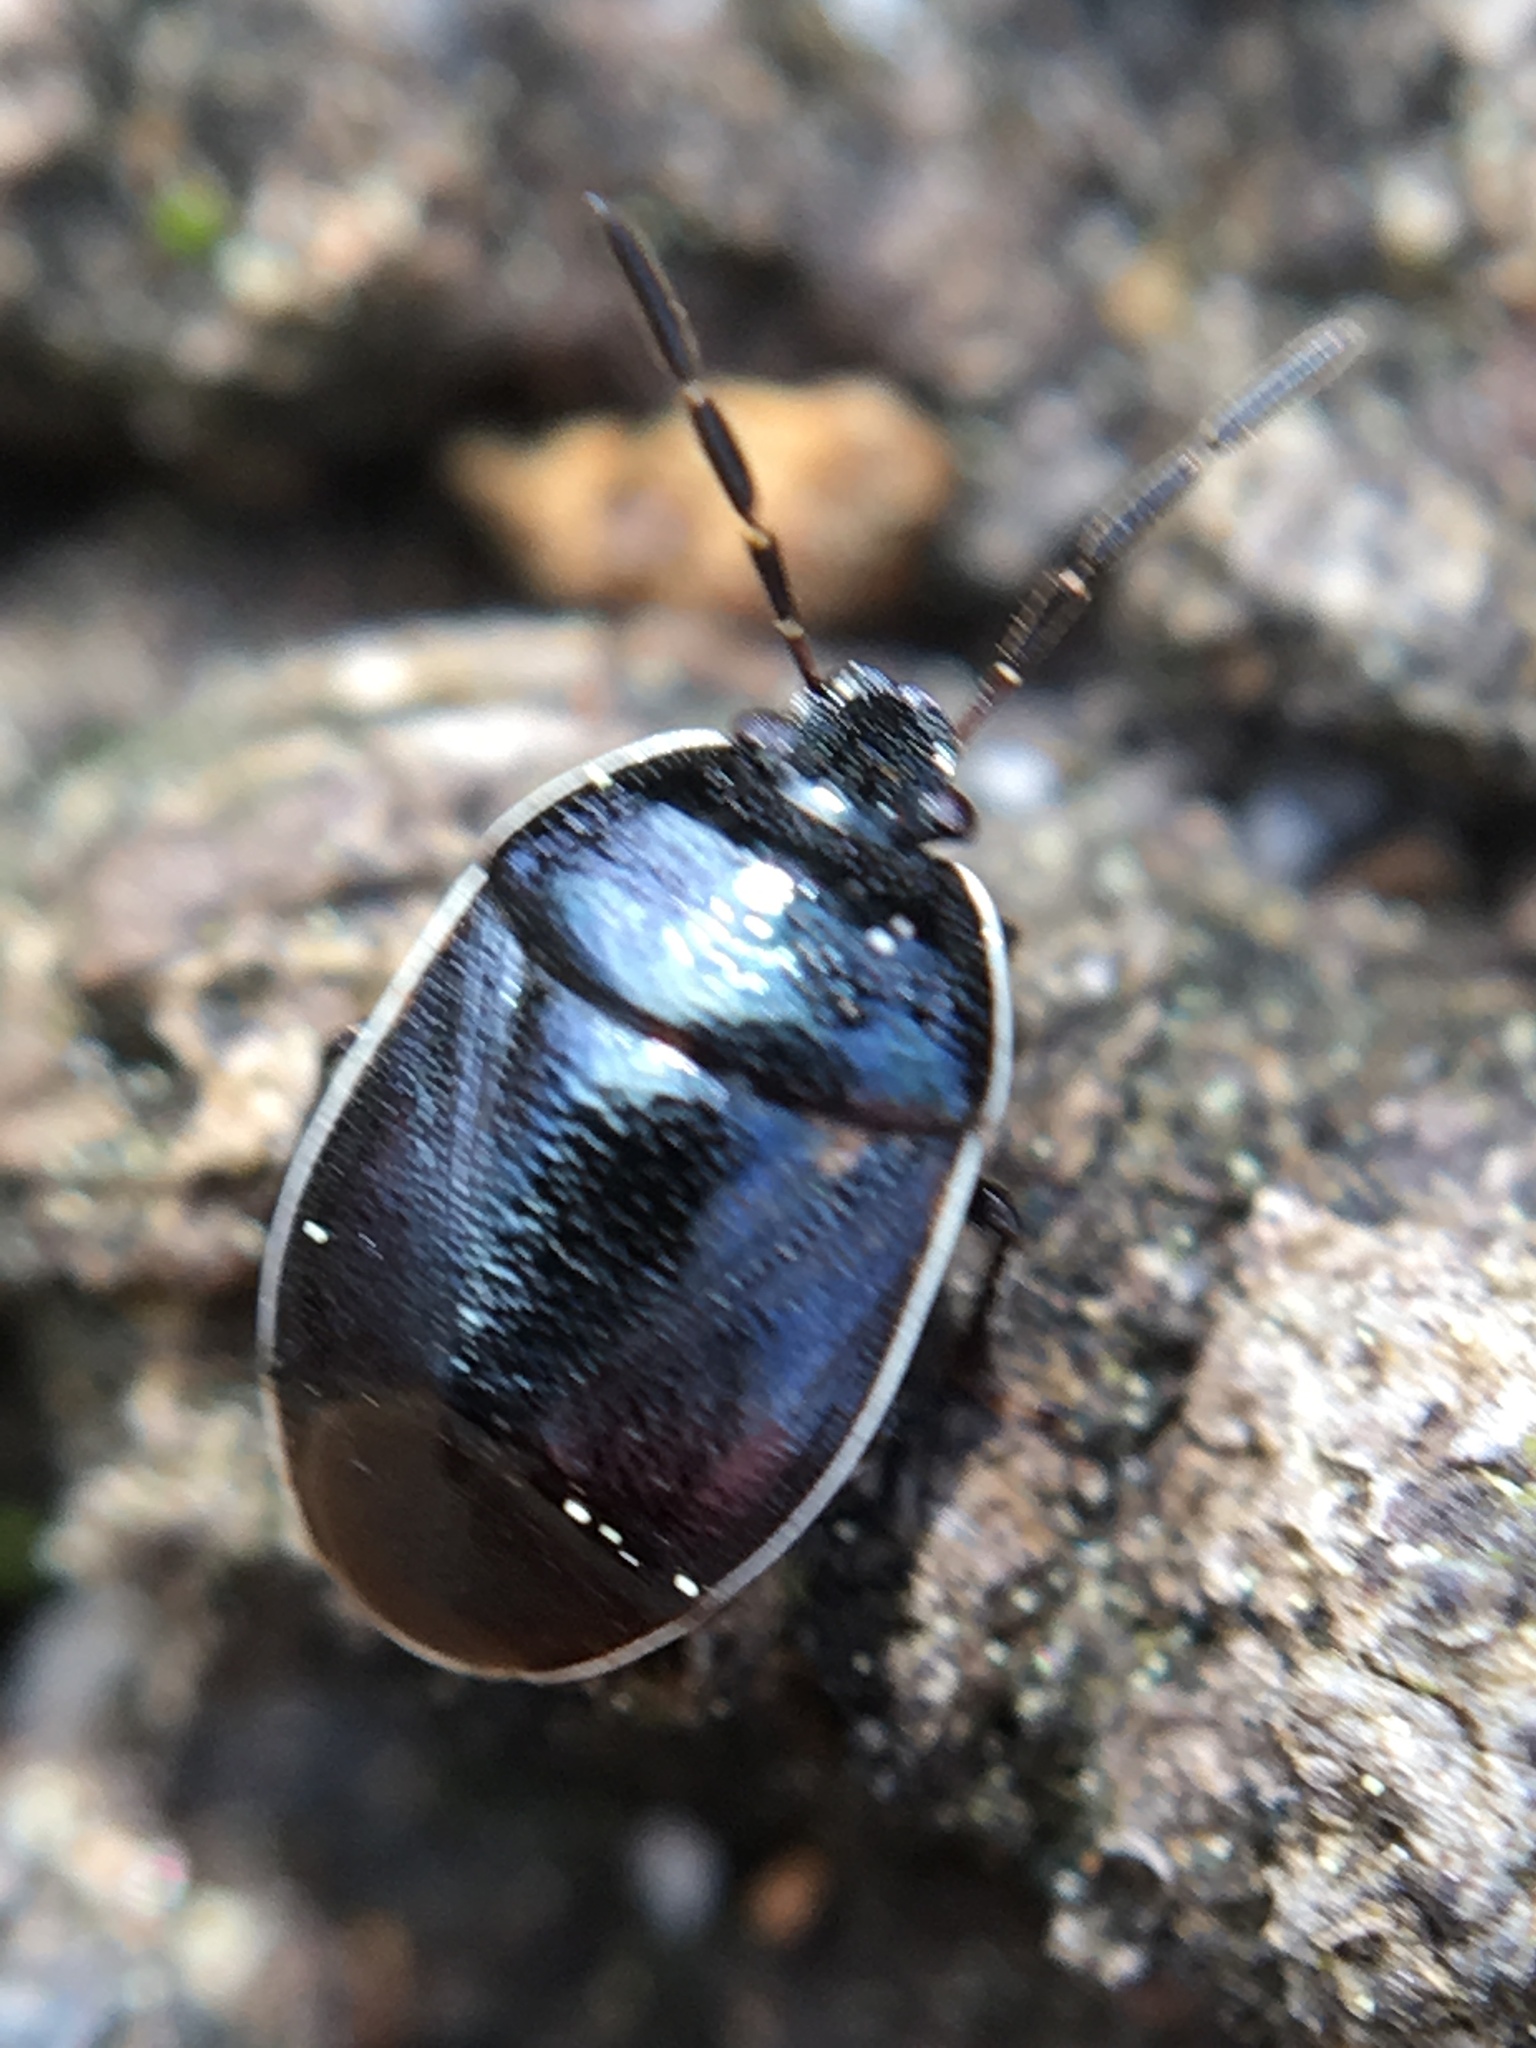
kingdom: Animalia
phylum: Arthropoda
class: Insecta
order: Hemiptera
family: Cydnidae
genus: Sehirus
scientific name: Sehirus cinctus
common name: White-margined burrower bug
